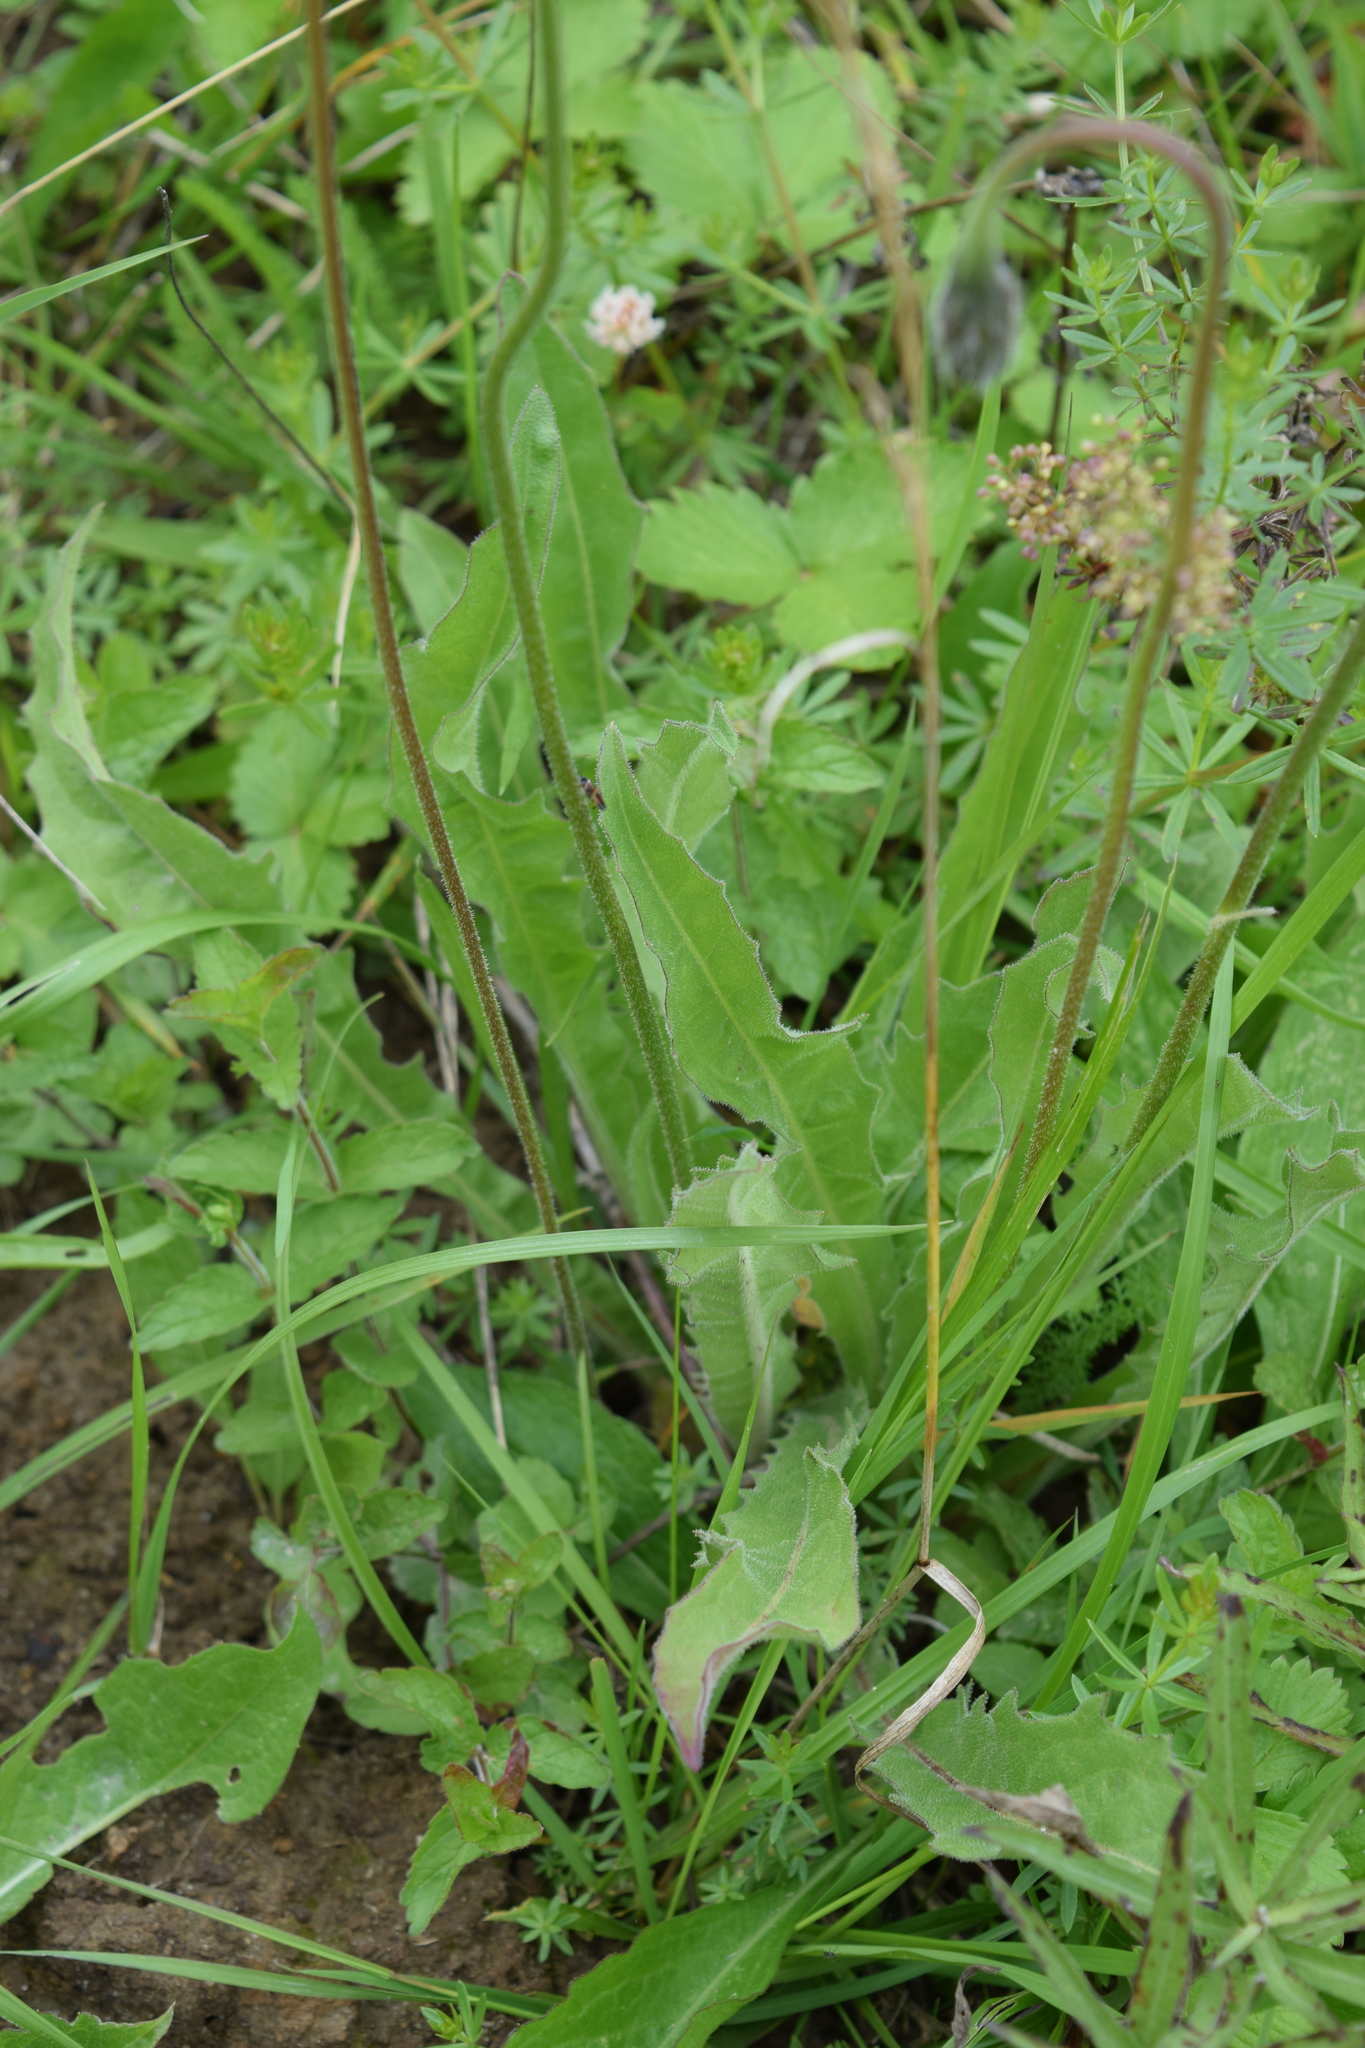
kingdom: Plantae
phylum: Tracheophyta
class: Magnoliopsida
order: Asterales
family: Asteraceae
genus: Leontodon
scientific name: Leontodon hispidus
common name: Rough hawkbit
